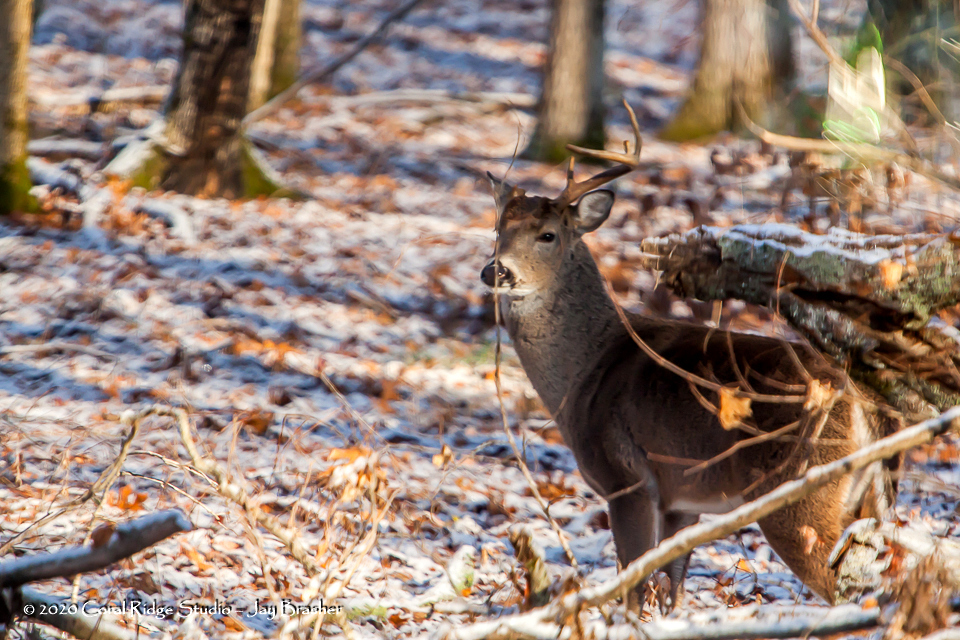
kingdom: Animalia
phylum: Chordata
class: Mammalia
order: Artiodactyla
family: Cervidae
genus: Odocoileus
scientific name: Odocoileus virginianus
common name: White-tailed deer
